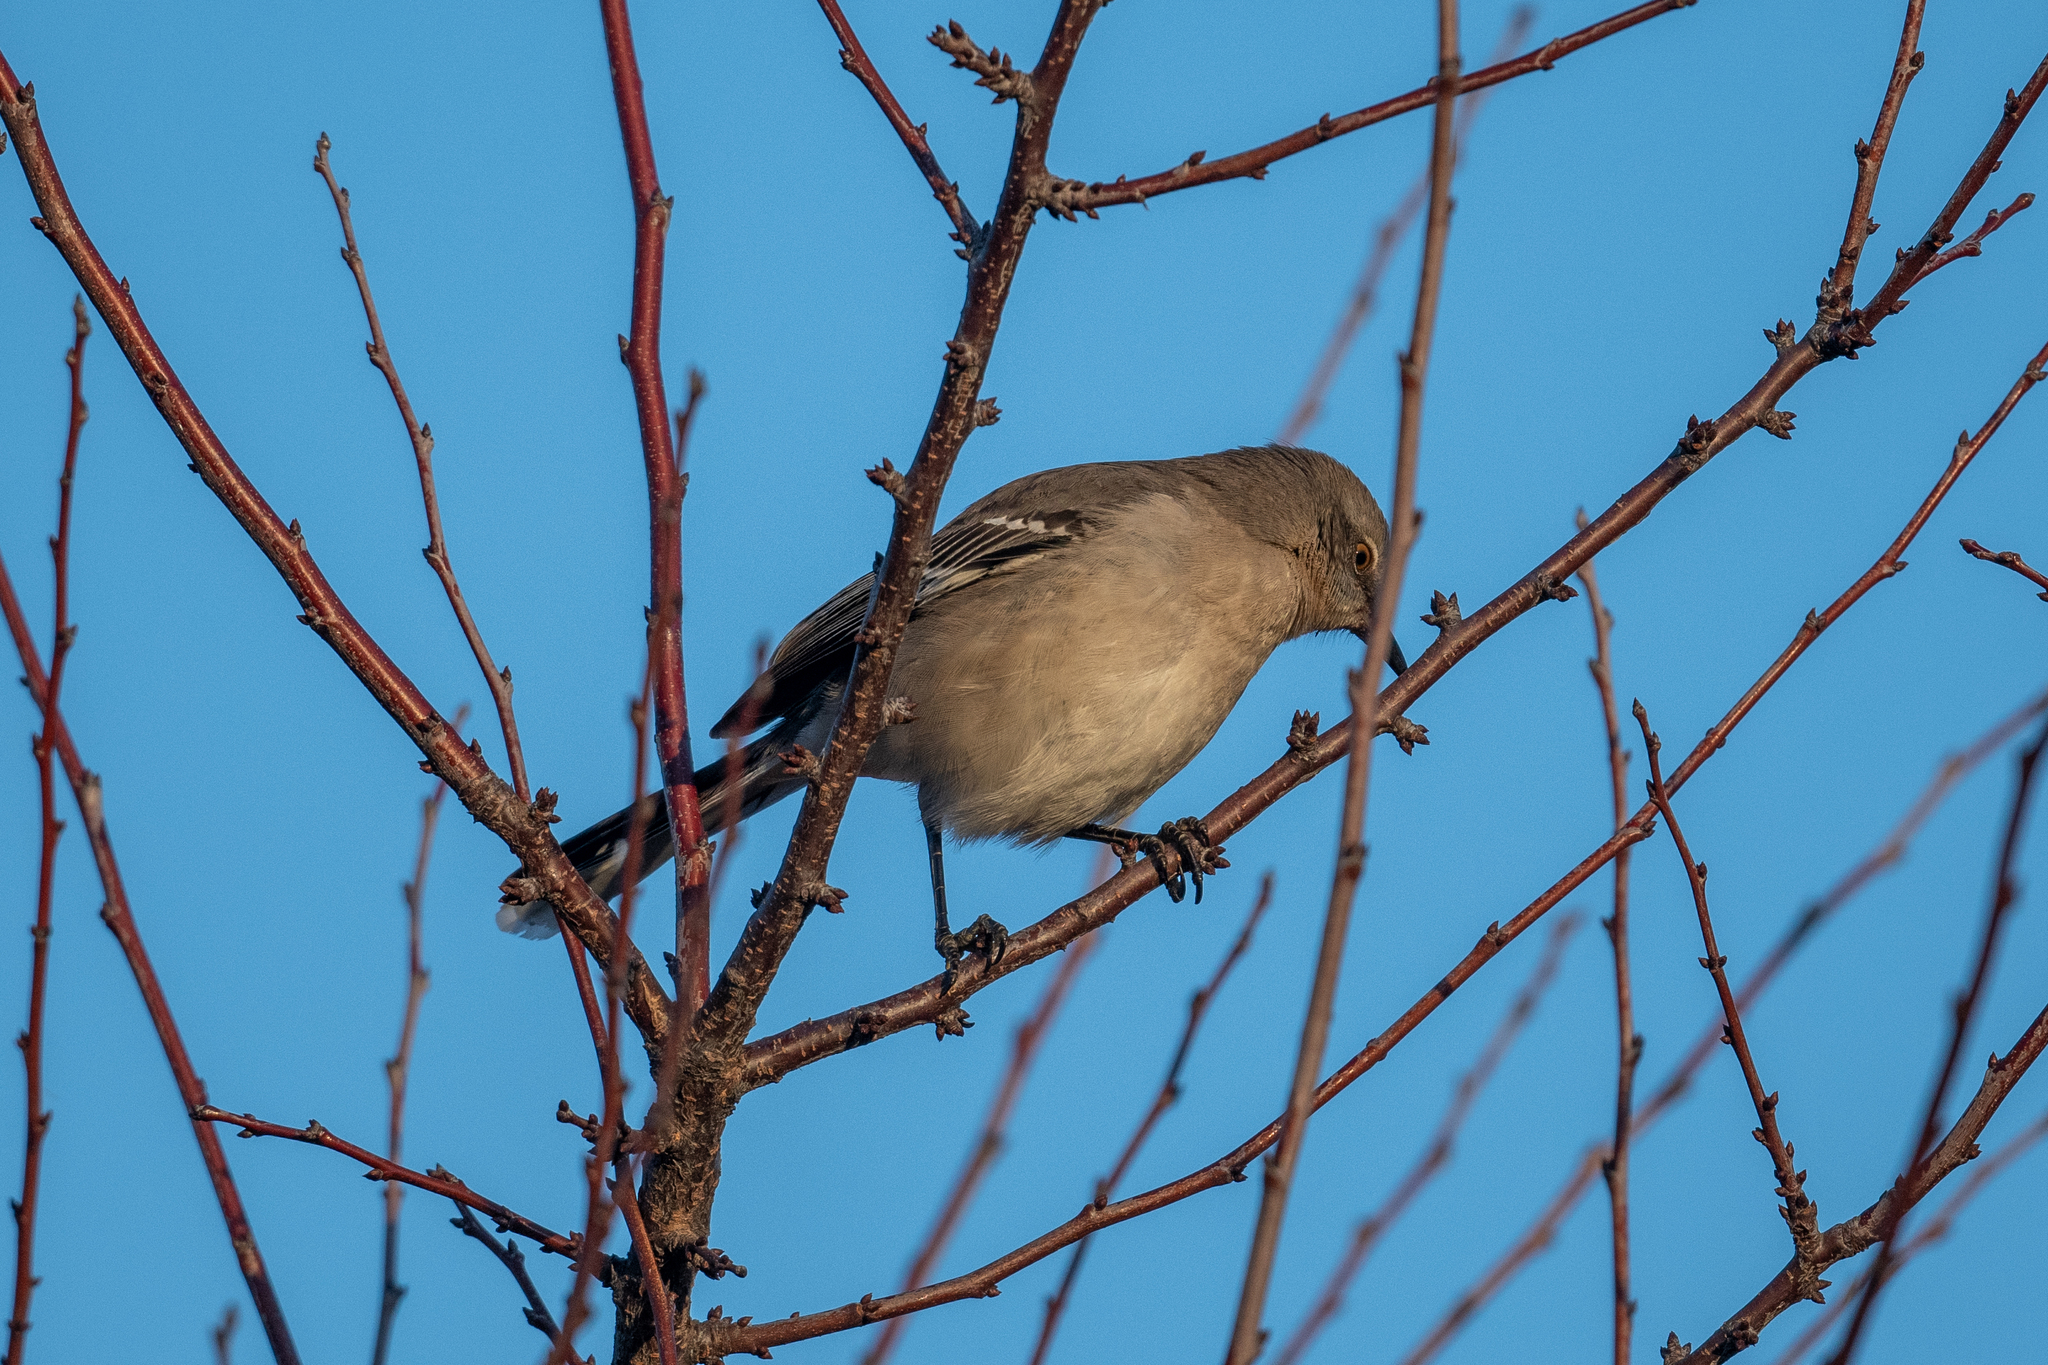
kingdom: Animalia
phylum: Chordata
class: Aves
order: Passeriformes
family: Mimidae
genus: Mimus
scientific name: Mimus polyglottos
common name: Northern mockingbird
